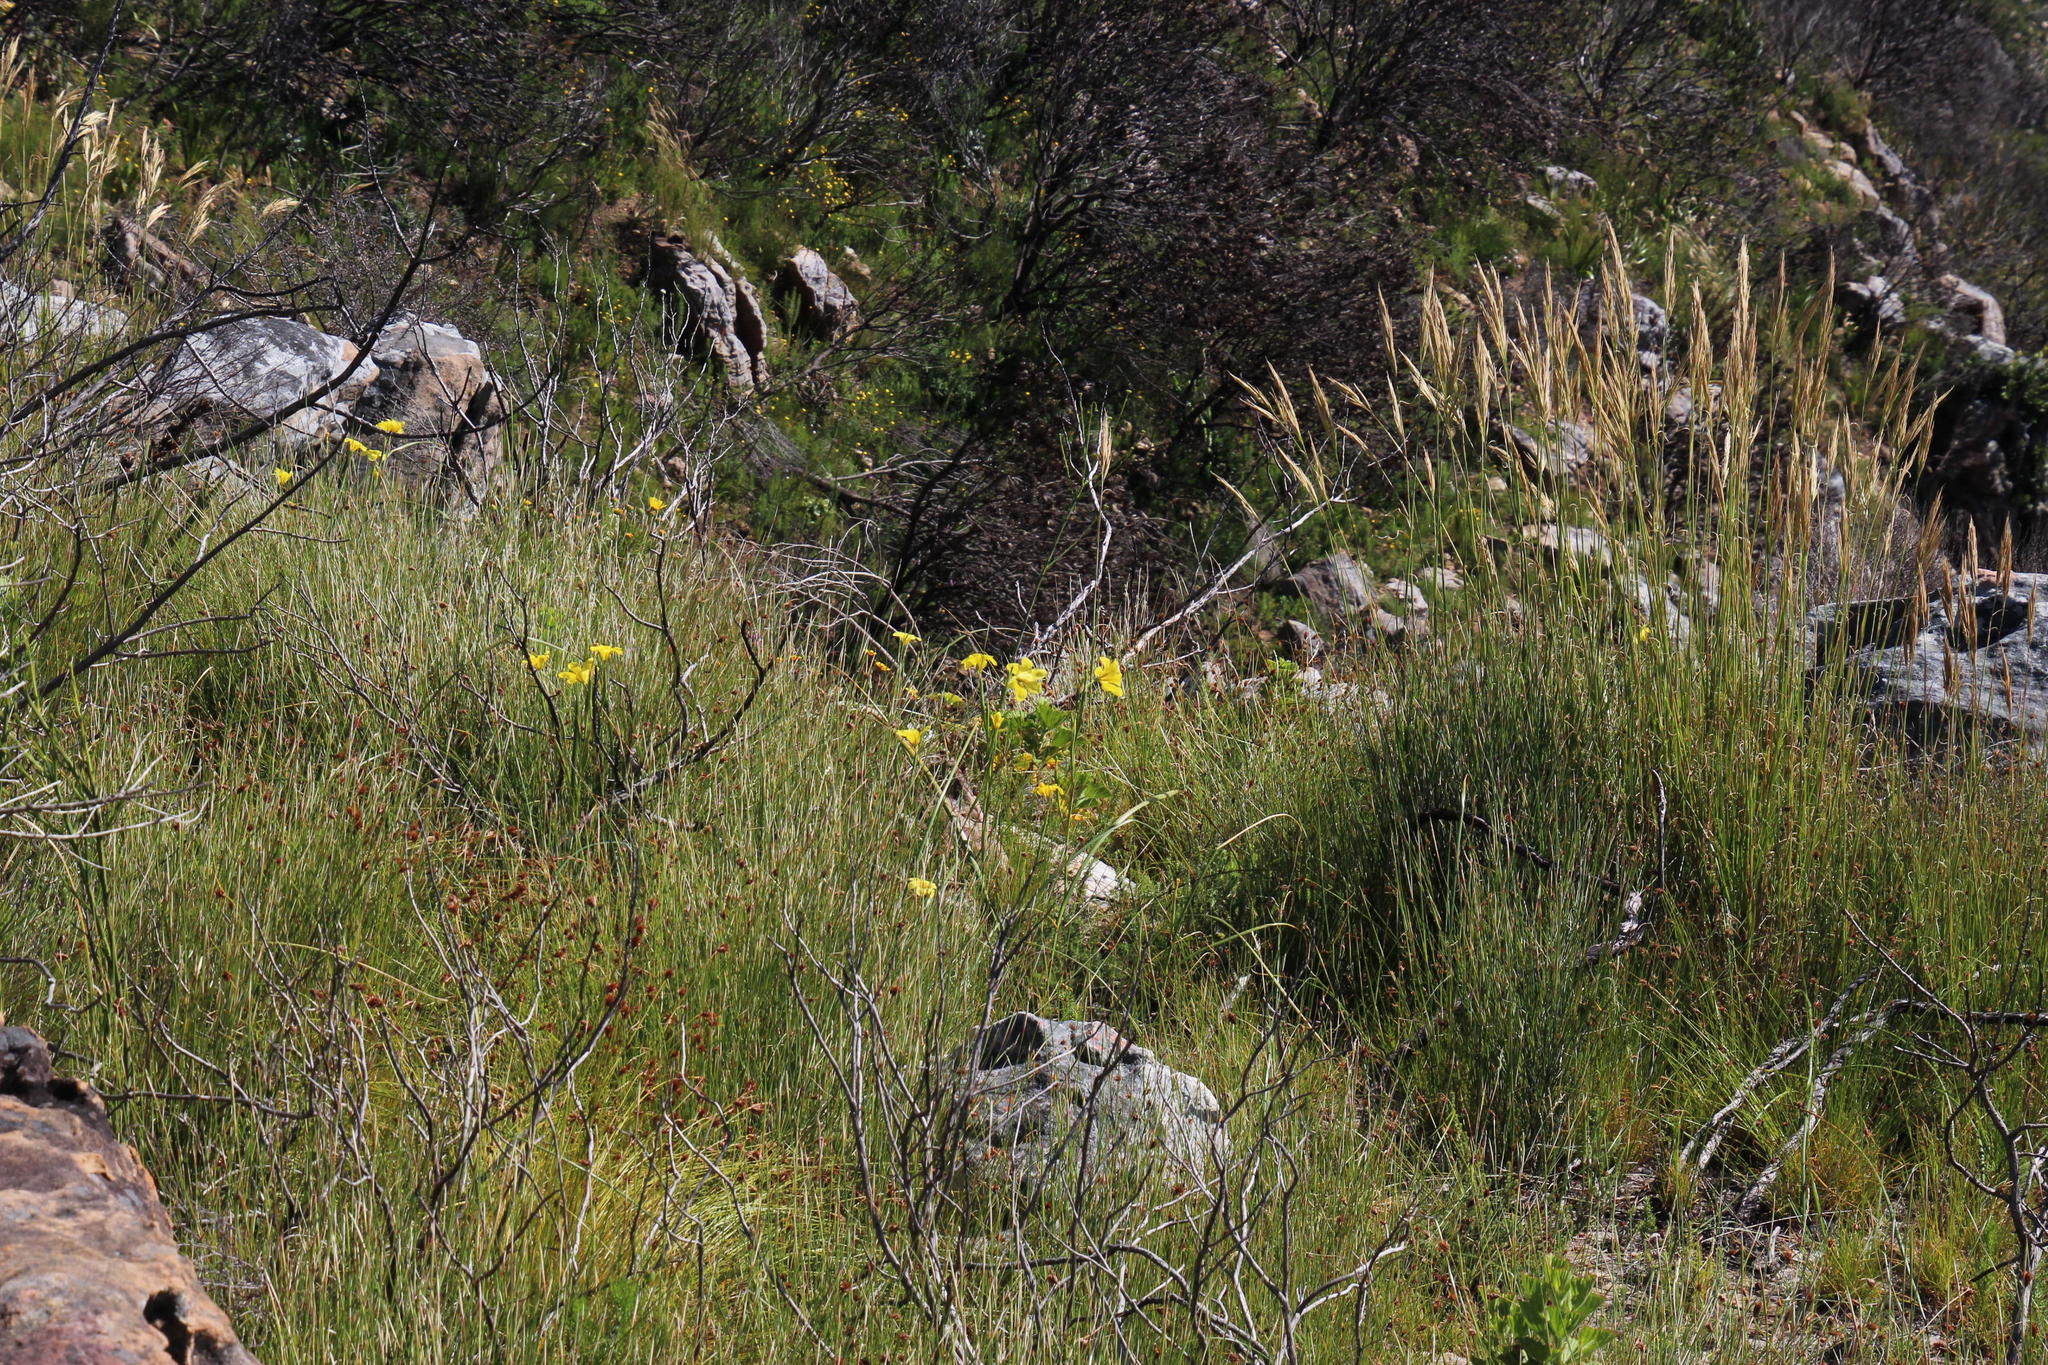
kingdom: Plantae
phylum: Tracheophyta
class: Liliopsida
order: Asparagales
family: Iridaceae
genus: Moraea
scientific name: Moraea ochroleuca
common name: Red tulp
